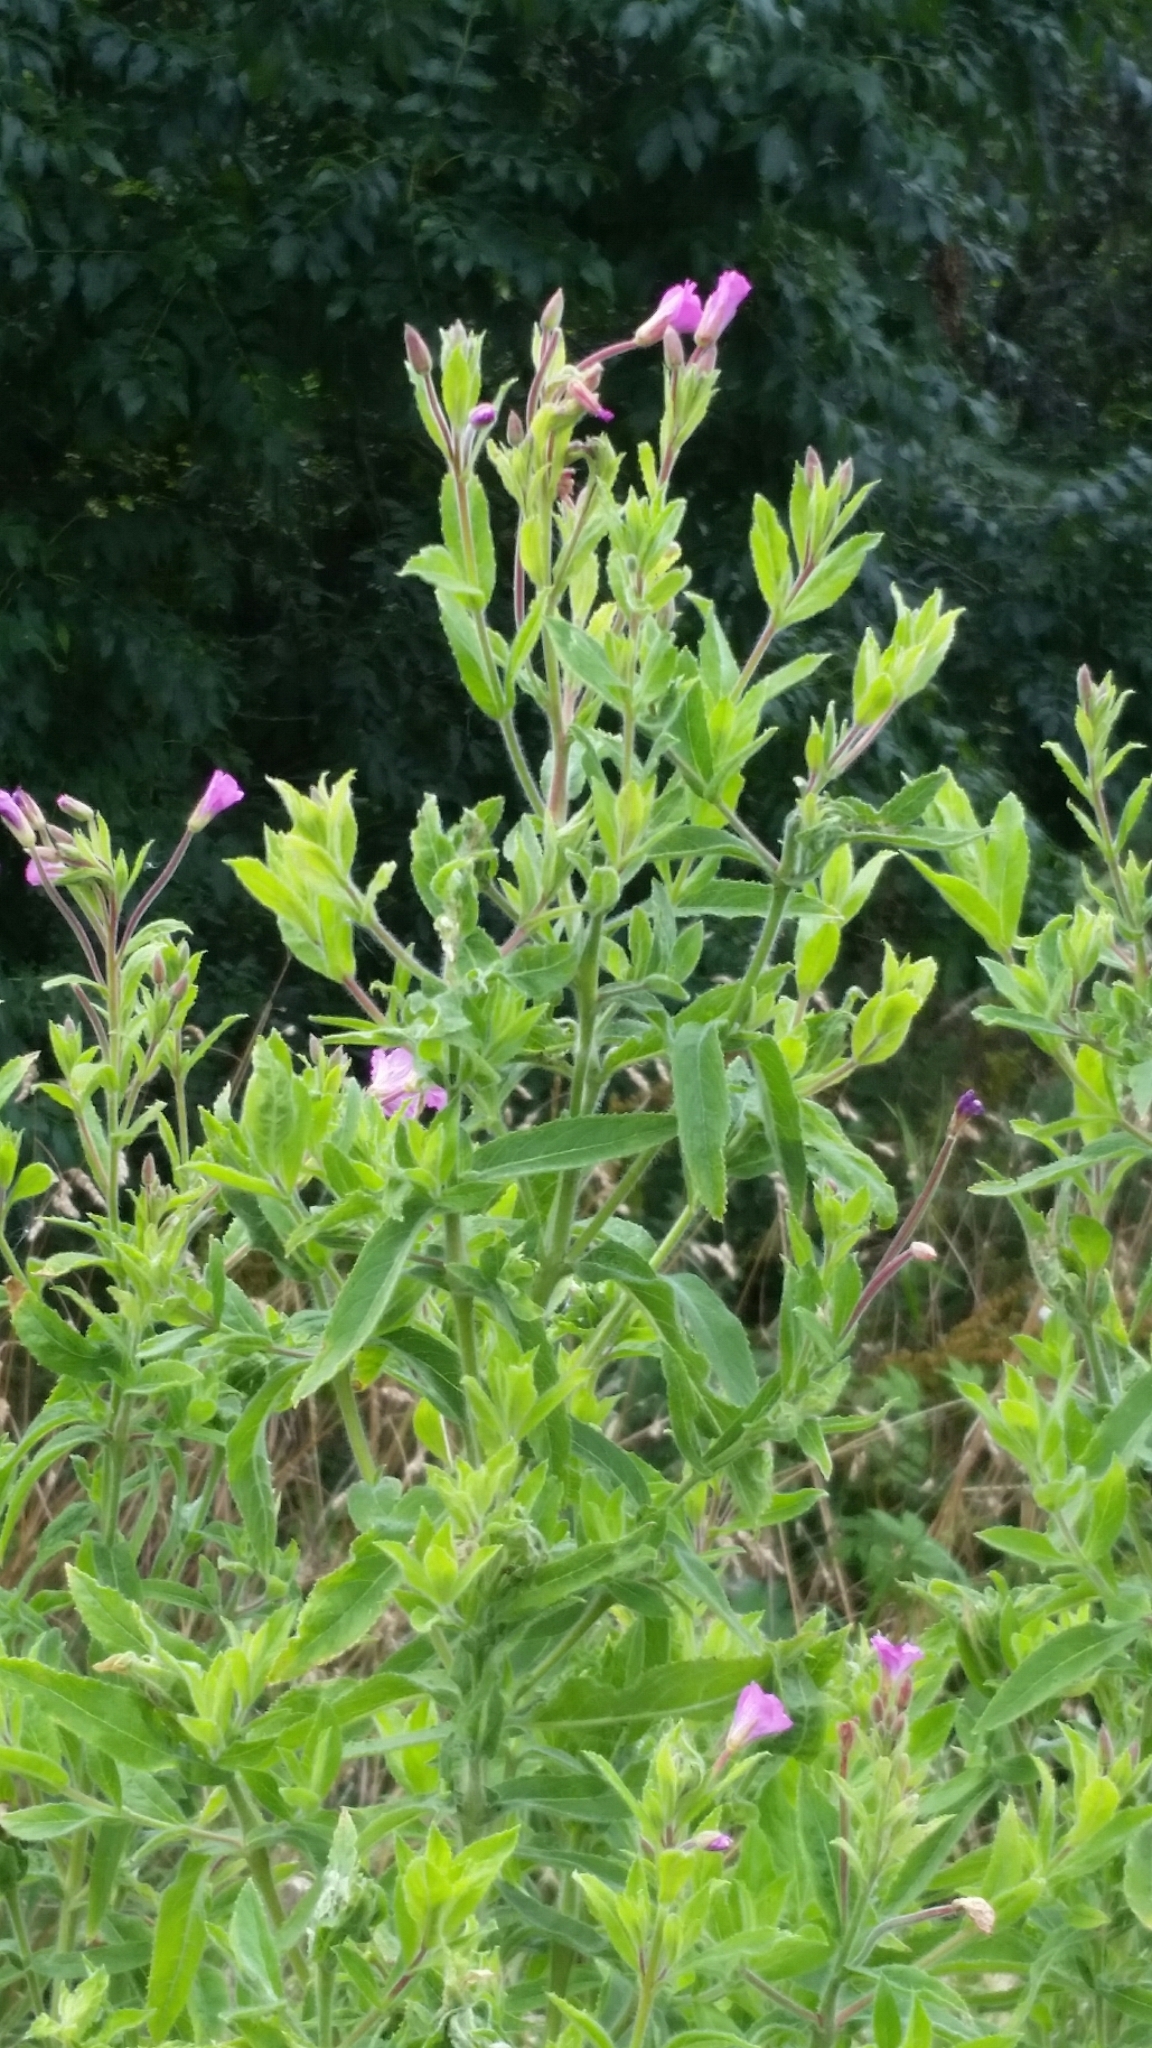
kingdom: Plantae
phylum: Tracheophyta
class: Magnoliopsida
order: Myrtales
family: Onagraceae
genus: Epilobium
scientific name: Epilobium hirsutum
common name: Great willowherb
